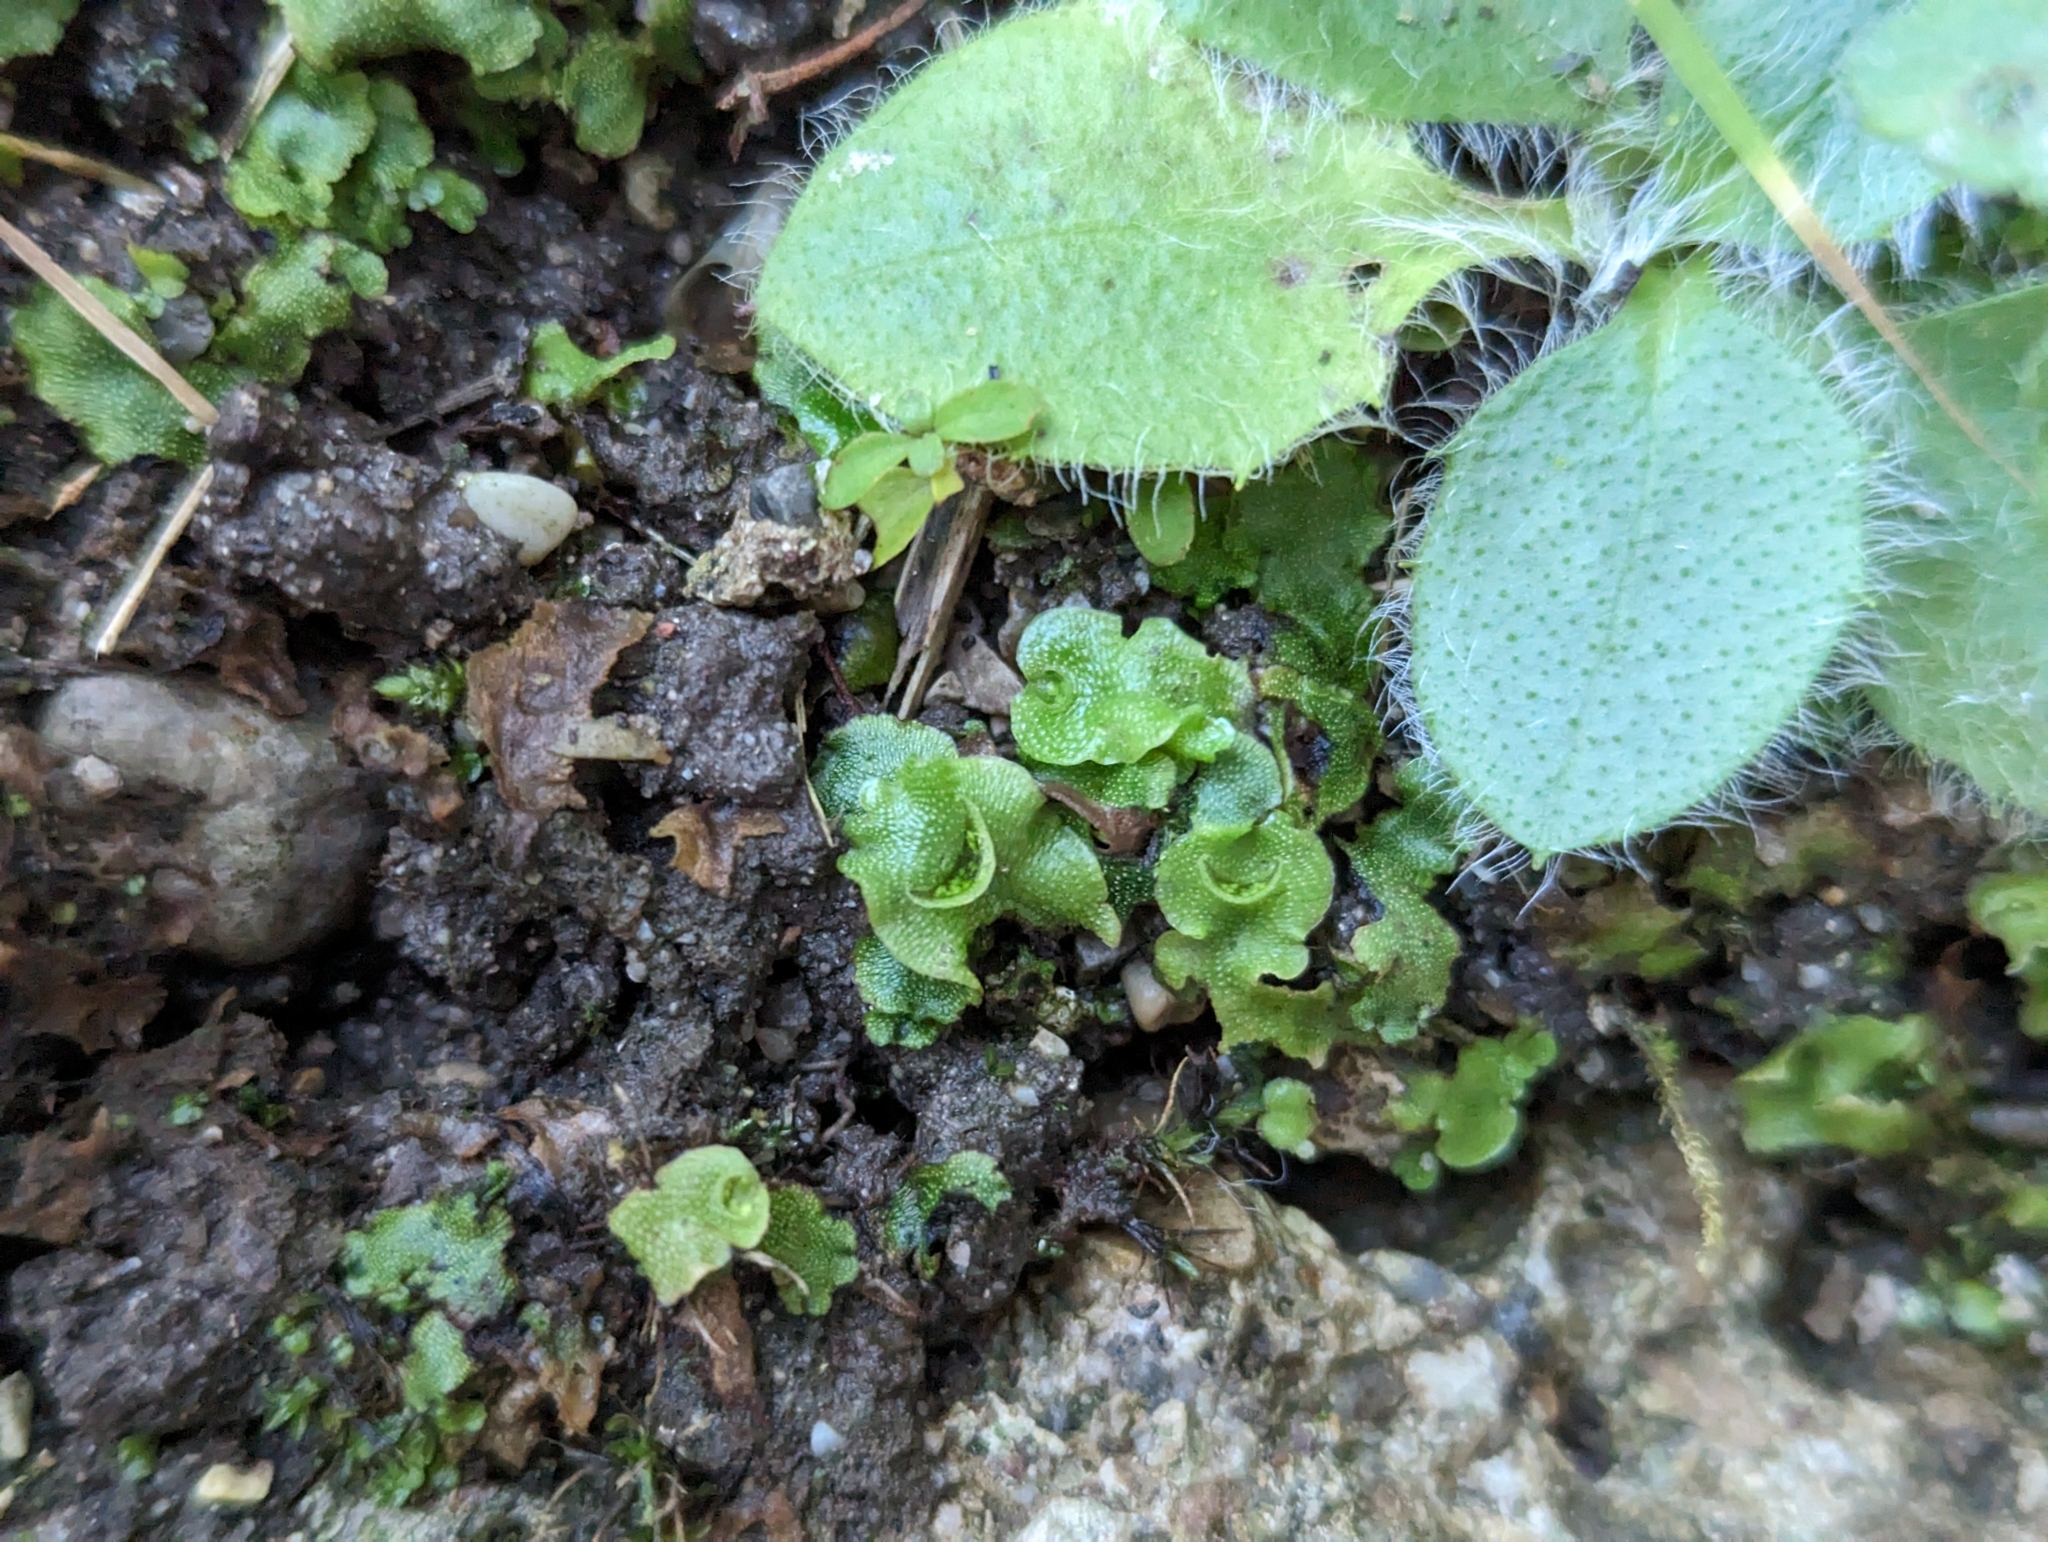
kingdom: Plantae
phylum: Marchantiophyta
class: Marchantiopsida
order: Lunulariales
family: Lunulariaceae
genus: Lunularia
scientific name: Lunularia cruciata
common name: Crescent-cup liverwort
